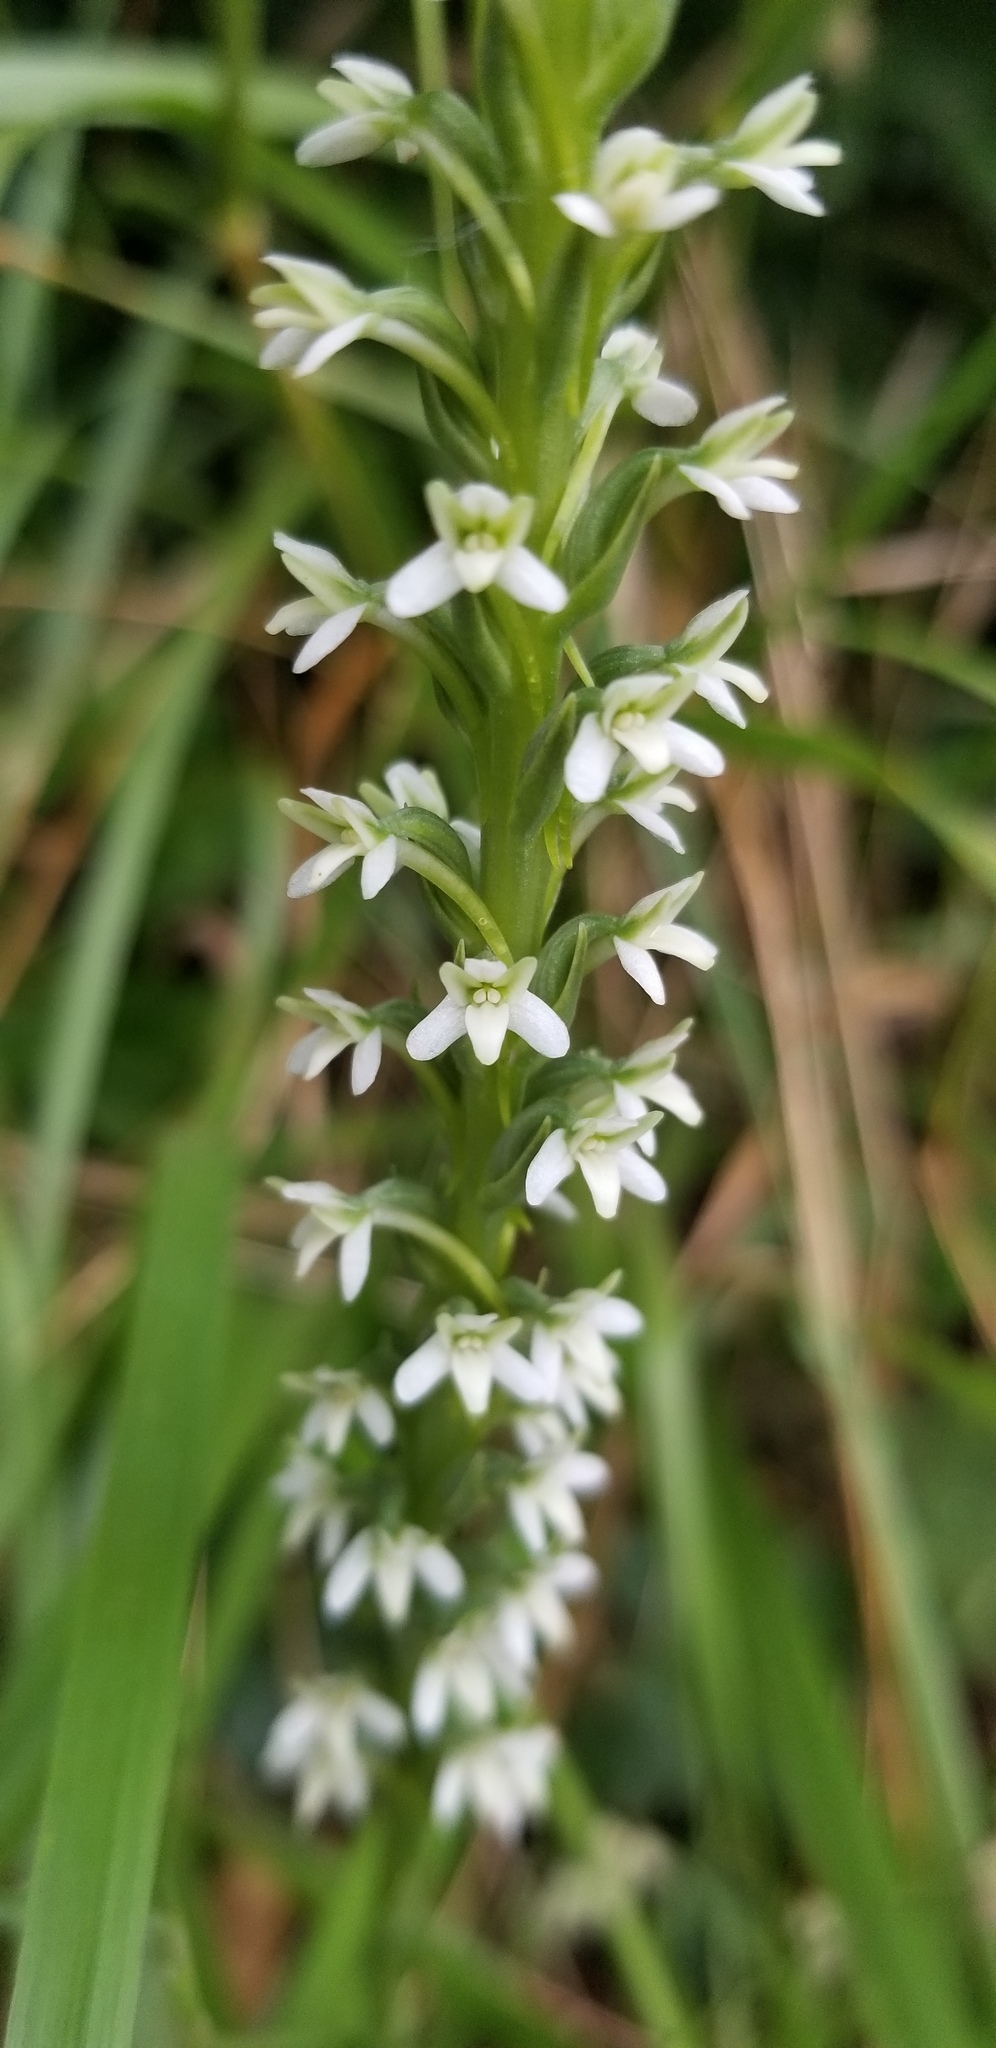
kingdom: Plantae
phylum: Tracheophyta
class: Liliopsida
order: Asparagales
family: Orchidaceae
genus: Platanthera
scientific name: Platanthera elegans
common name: Coast piperia
